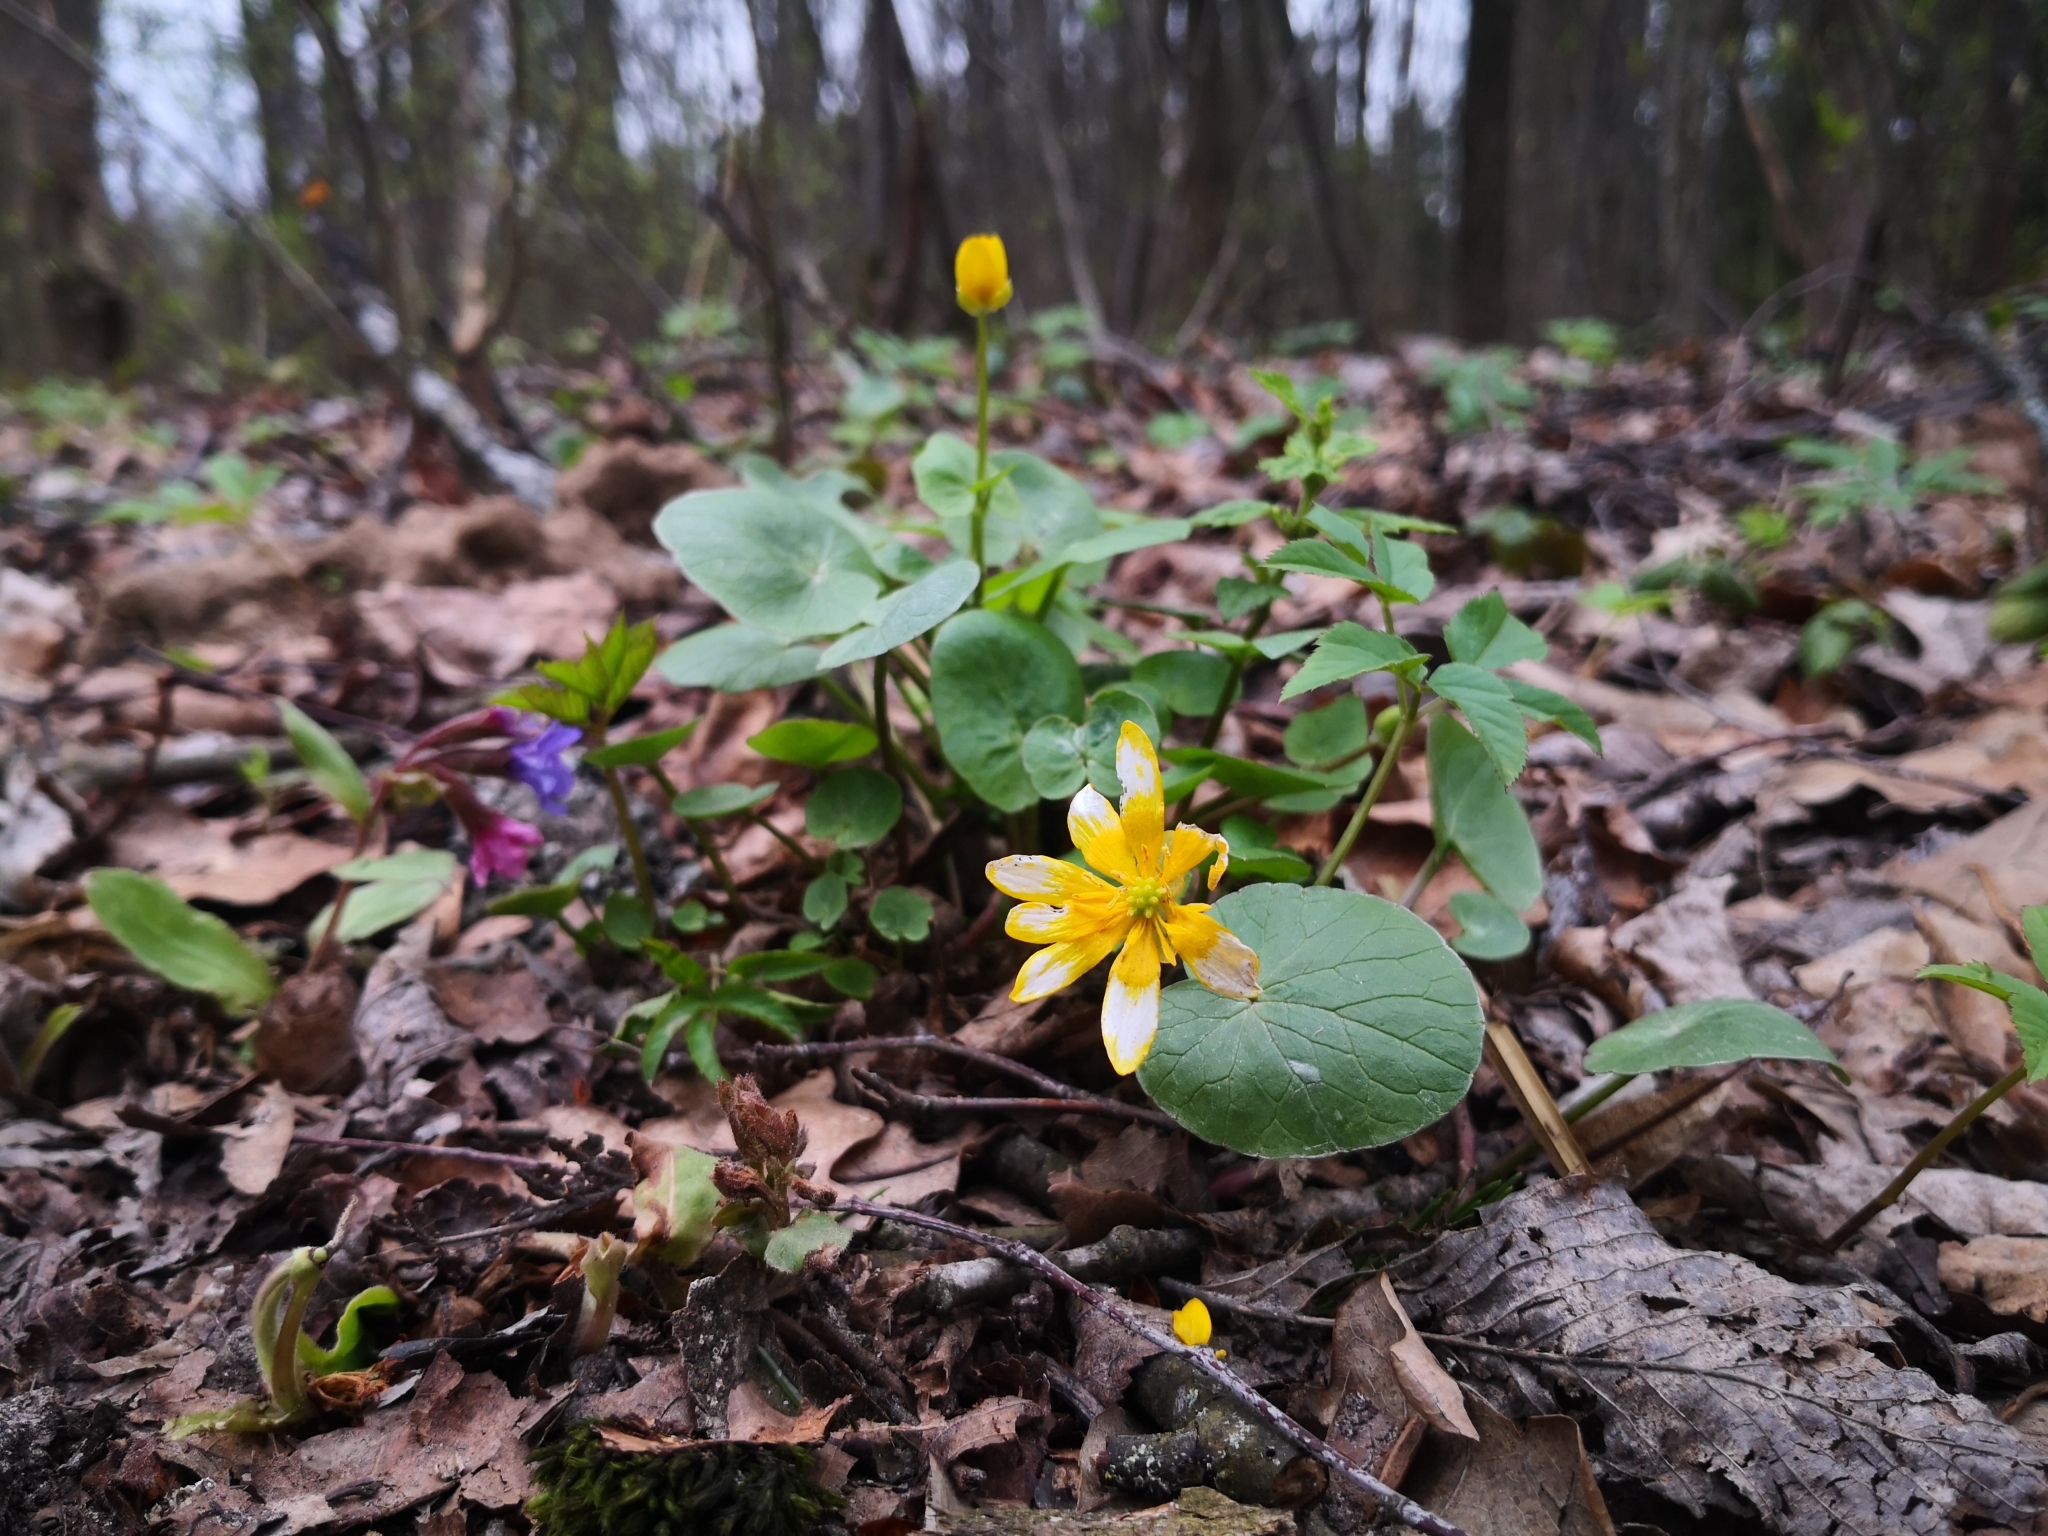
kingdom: Plantae
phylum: Tracheophyta
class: Magnoliopsida
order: Ranunculales
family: Ranunculaceae
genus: Ficaria
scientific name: Ficaria verna
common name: Lesser celandine
